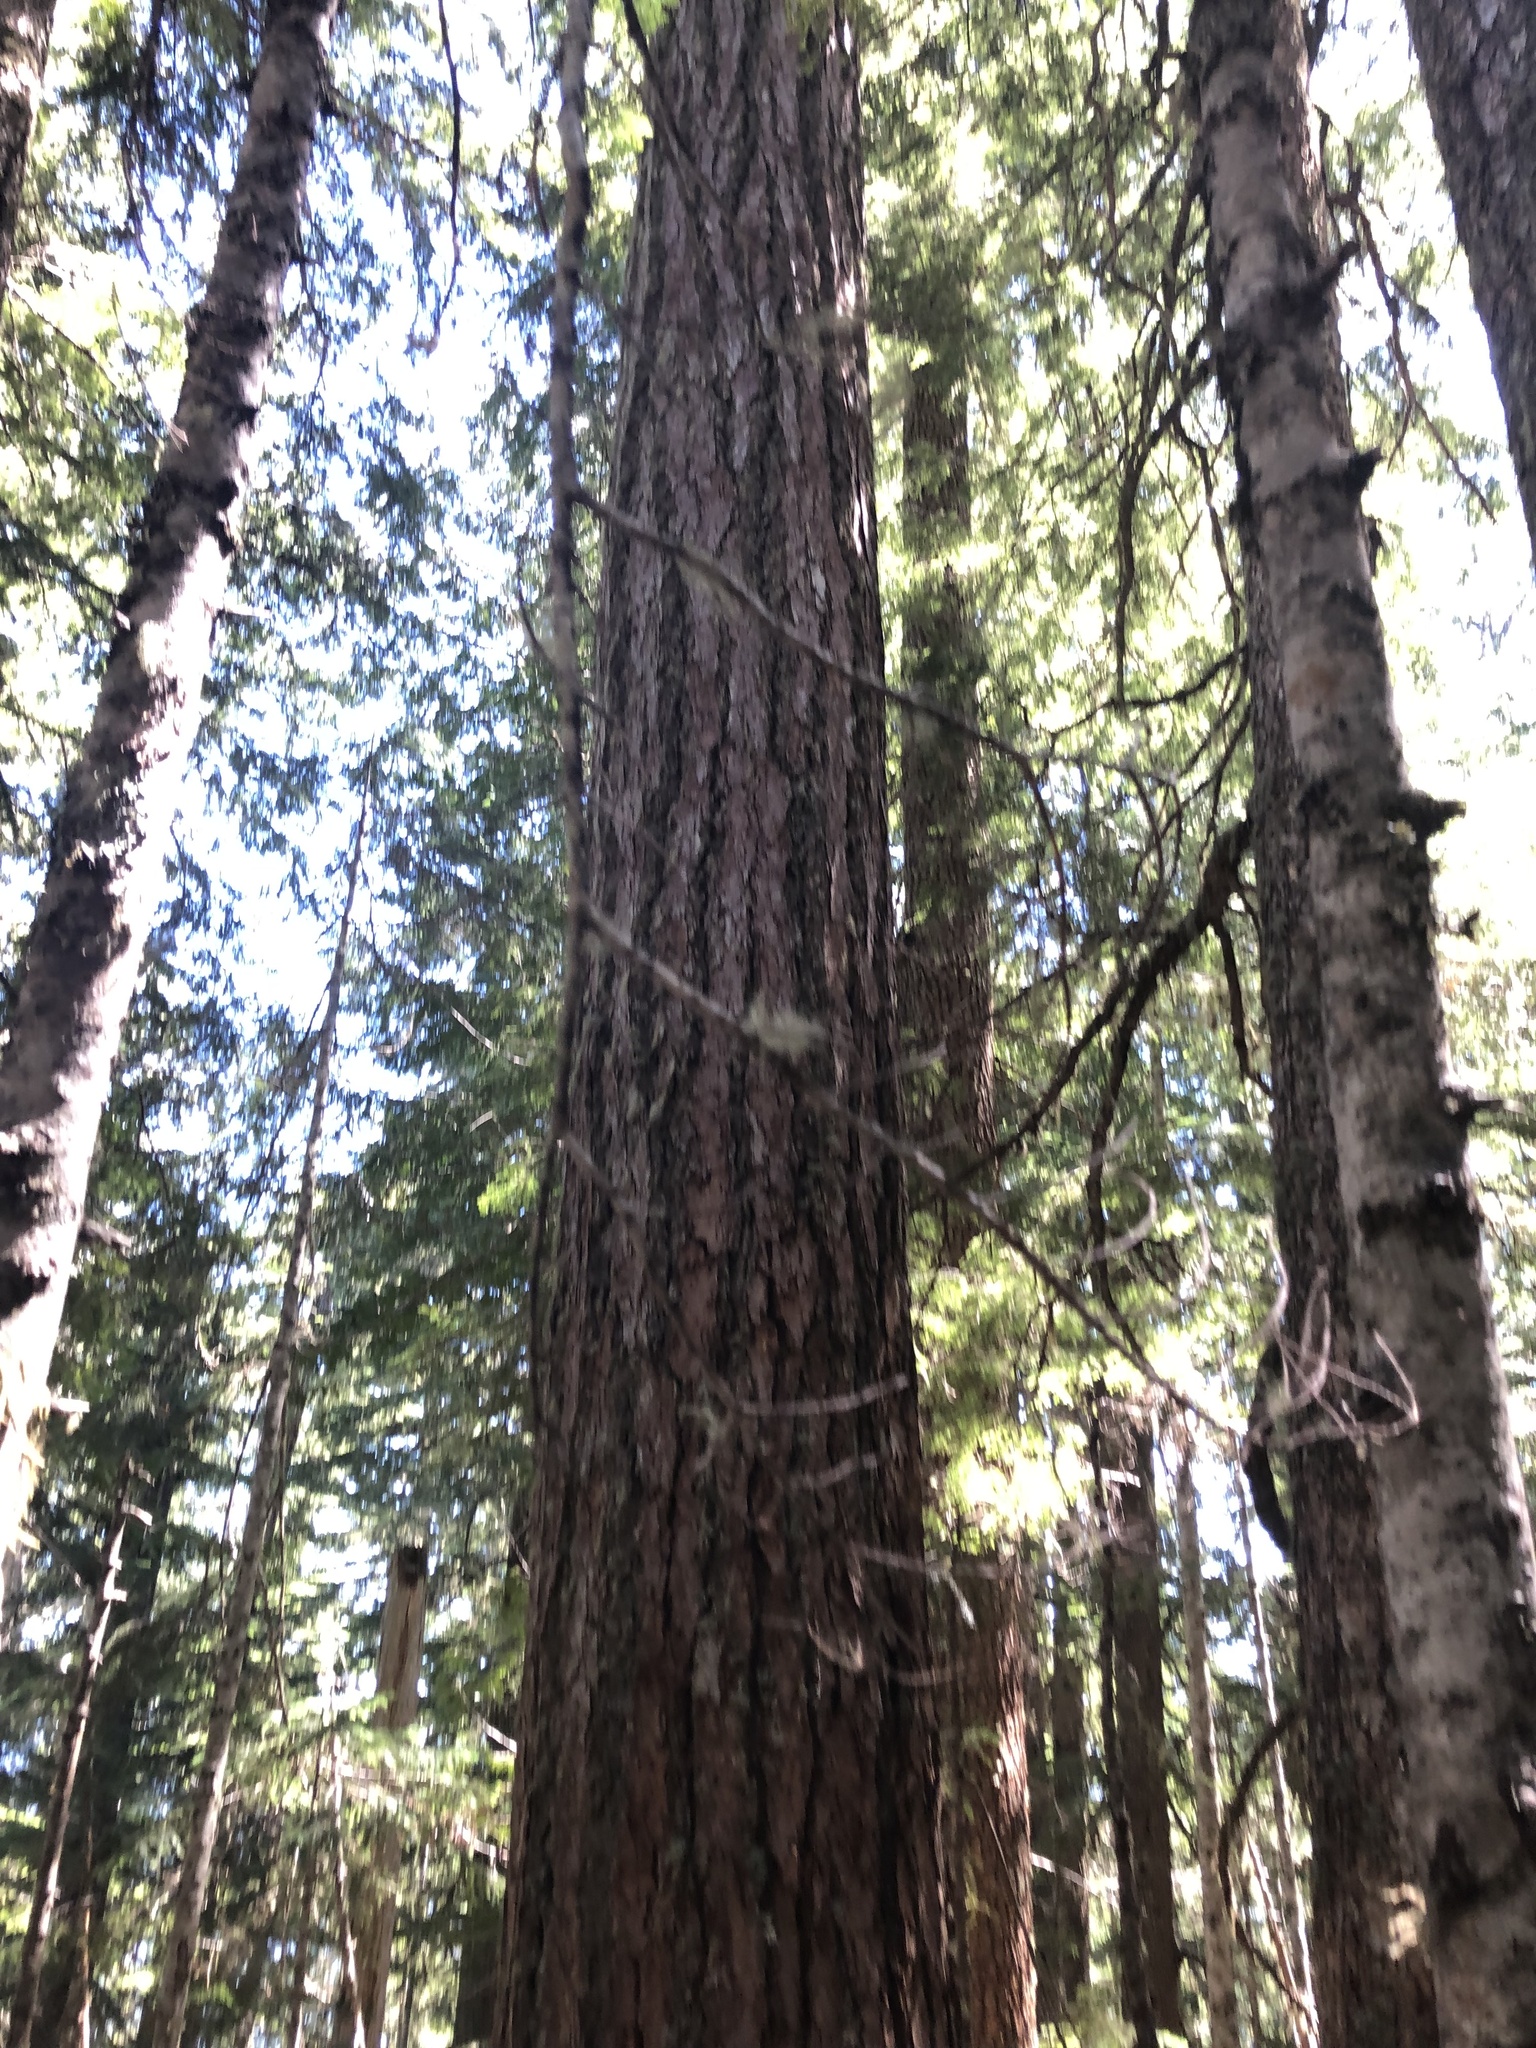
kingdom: Plantae
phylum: Tracheophyta
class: Pinopsida
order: Pinales
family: Pinaceae
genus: Pseudotsuga
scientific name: Pseudotsuga menziesii
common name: Douglas fir
